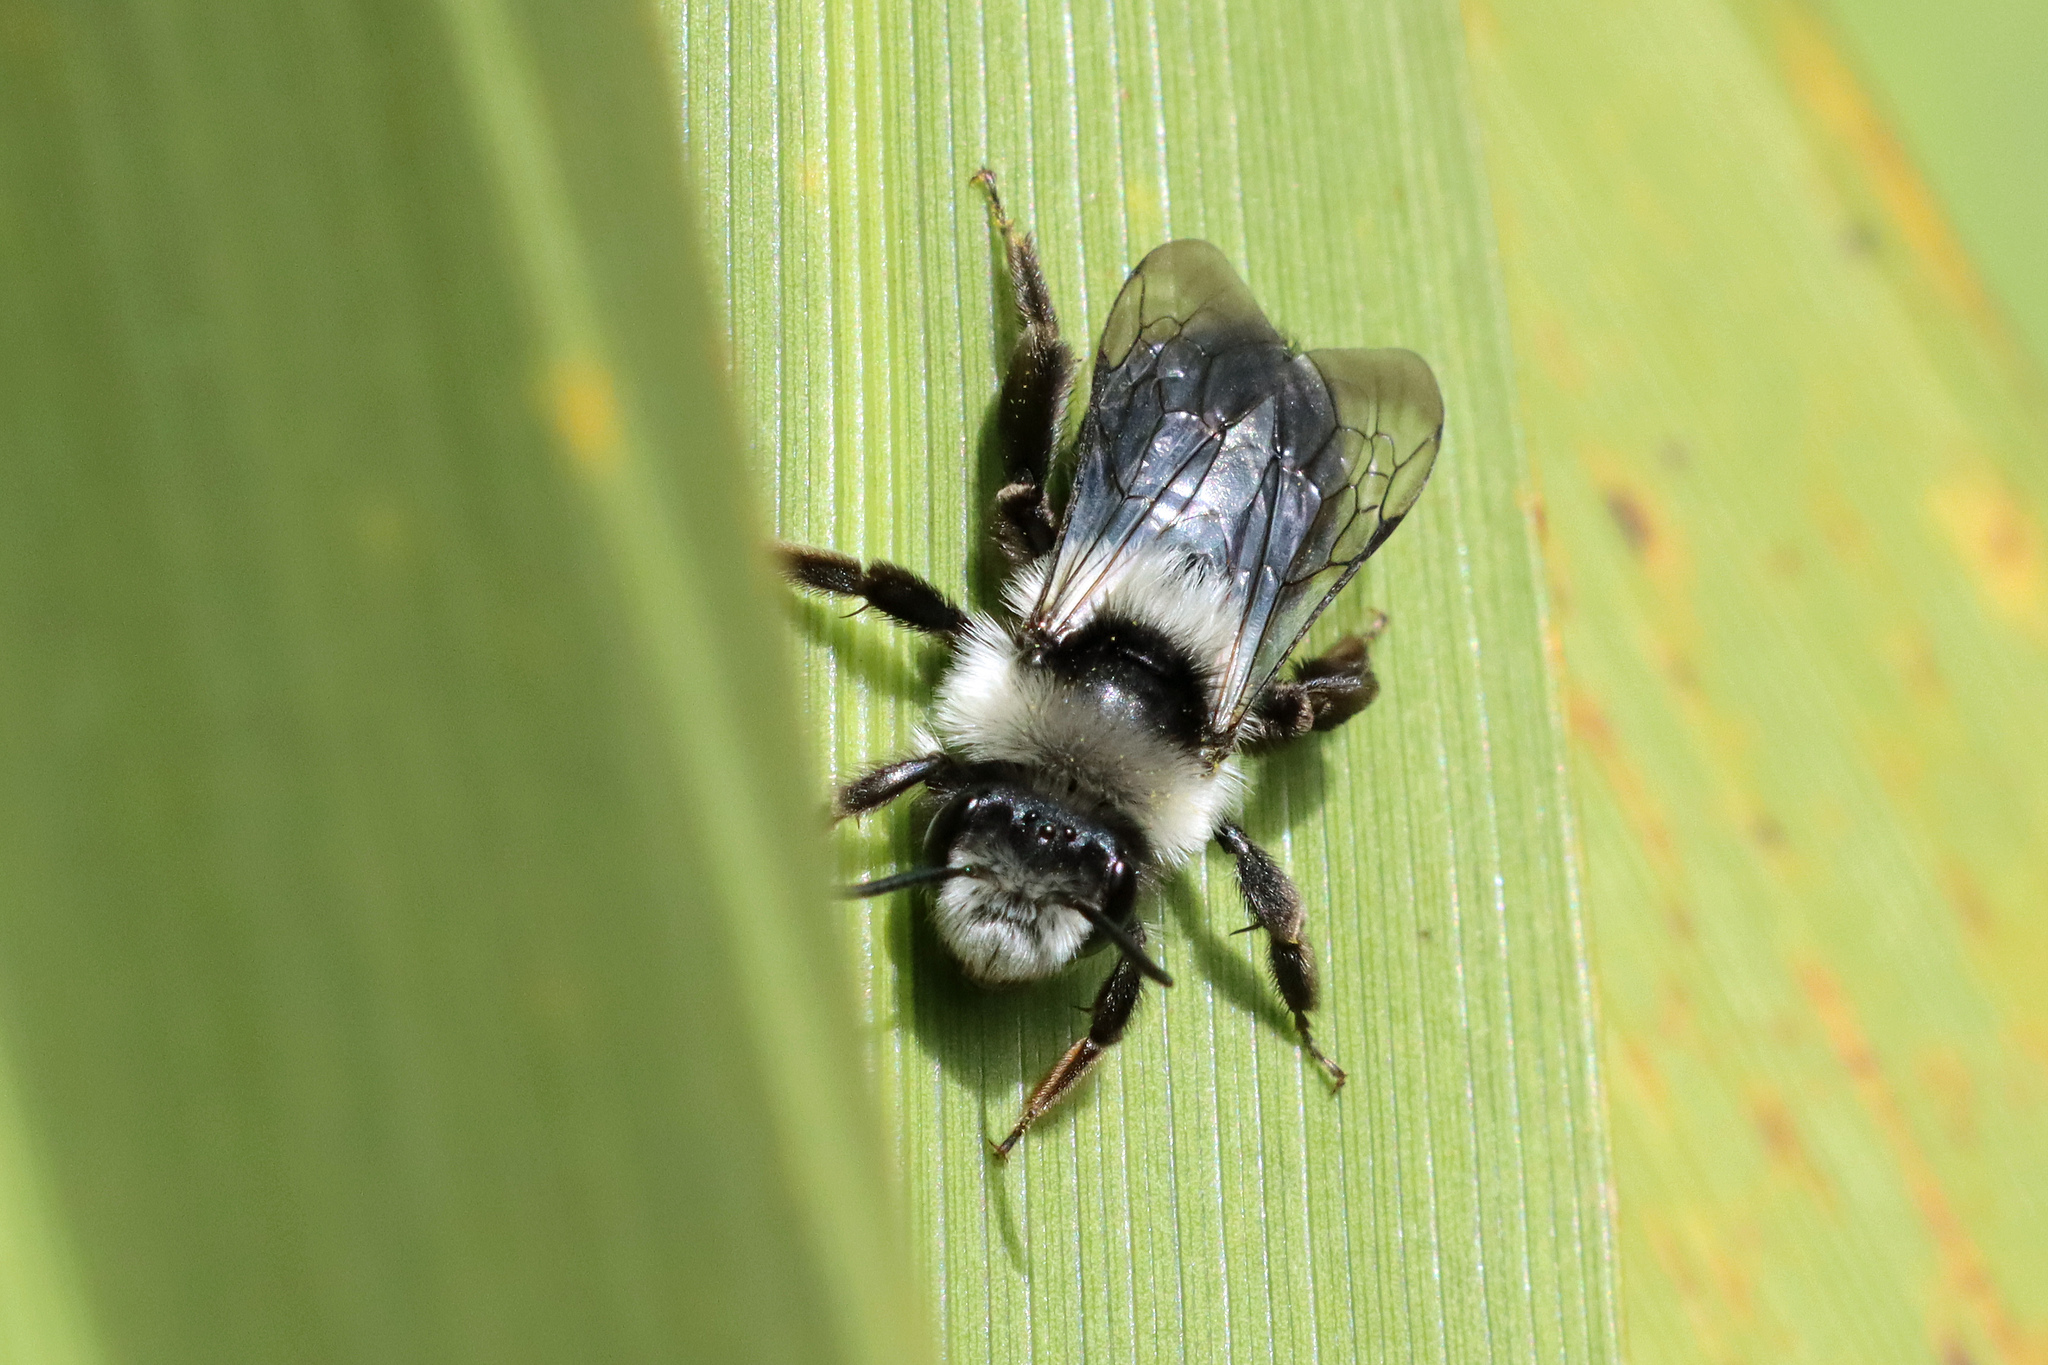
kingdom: Animalia
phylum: Arthropoda
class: Insecta
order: Hymenoptera
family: Andrenidae
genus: Andrena
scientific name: Andrena cineraria
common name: Ashy mining bee
